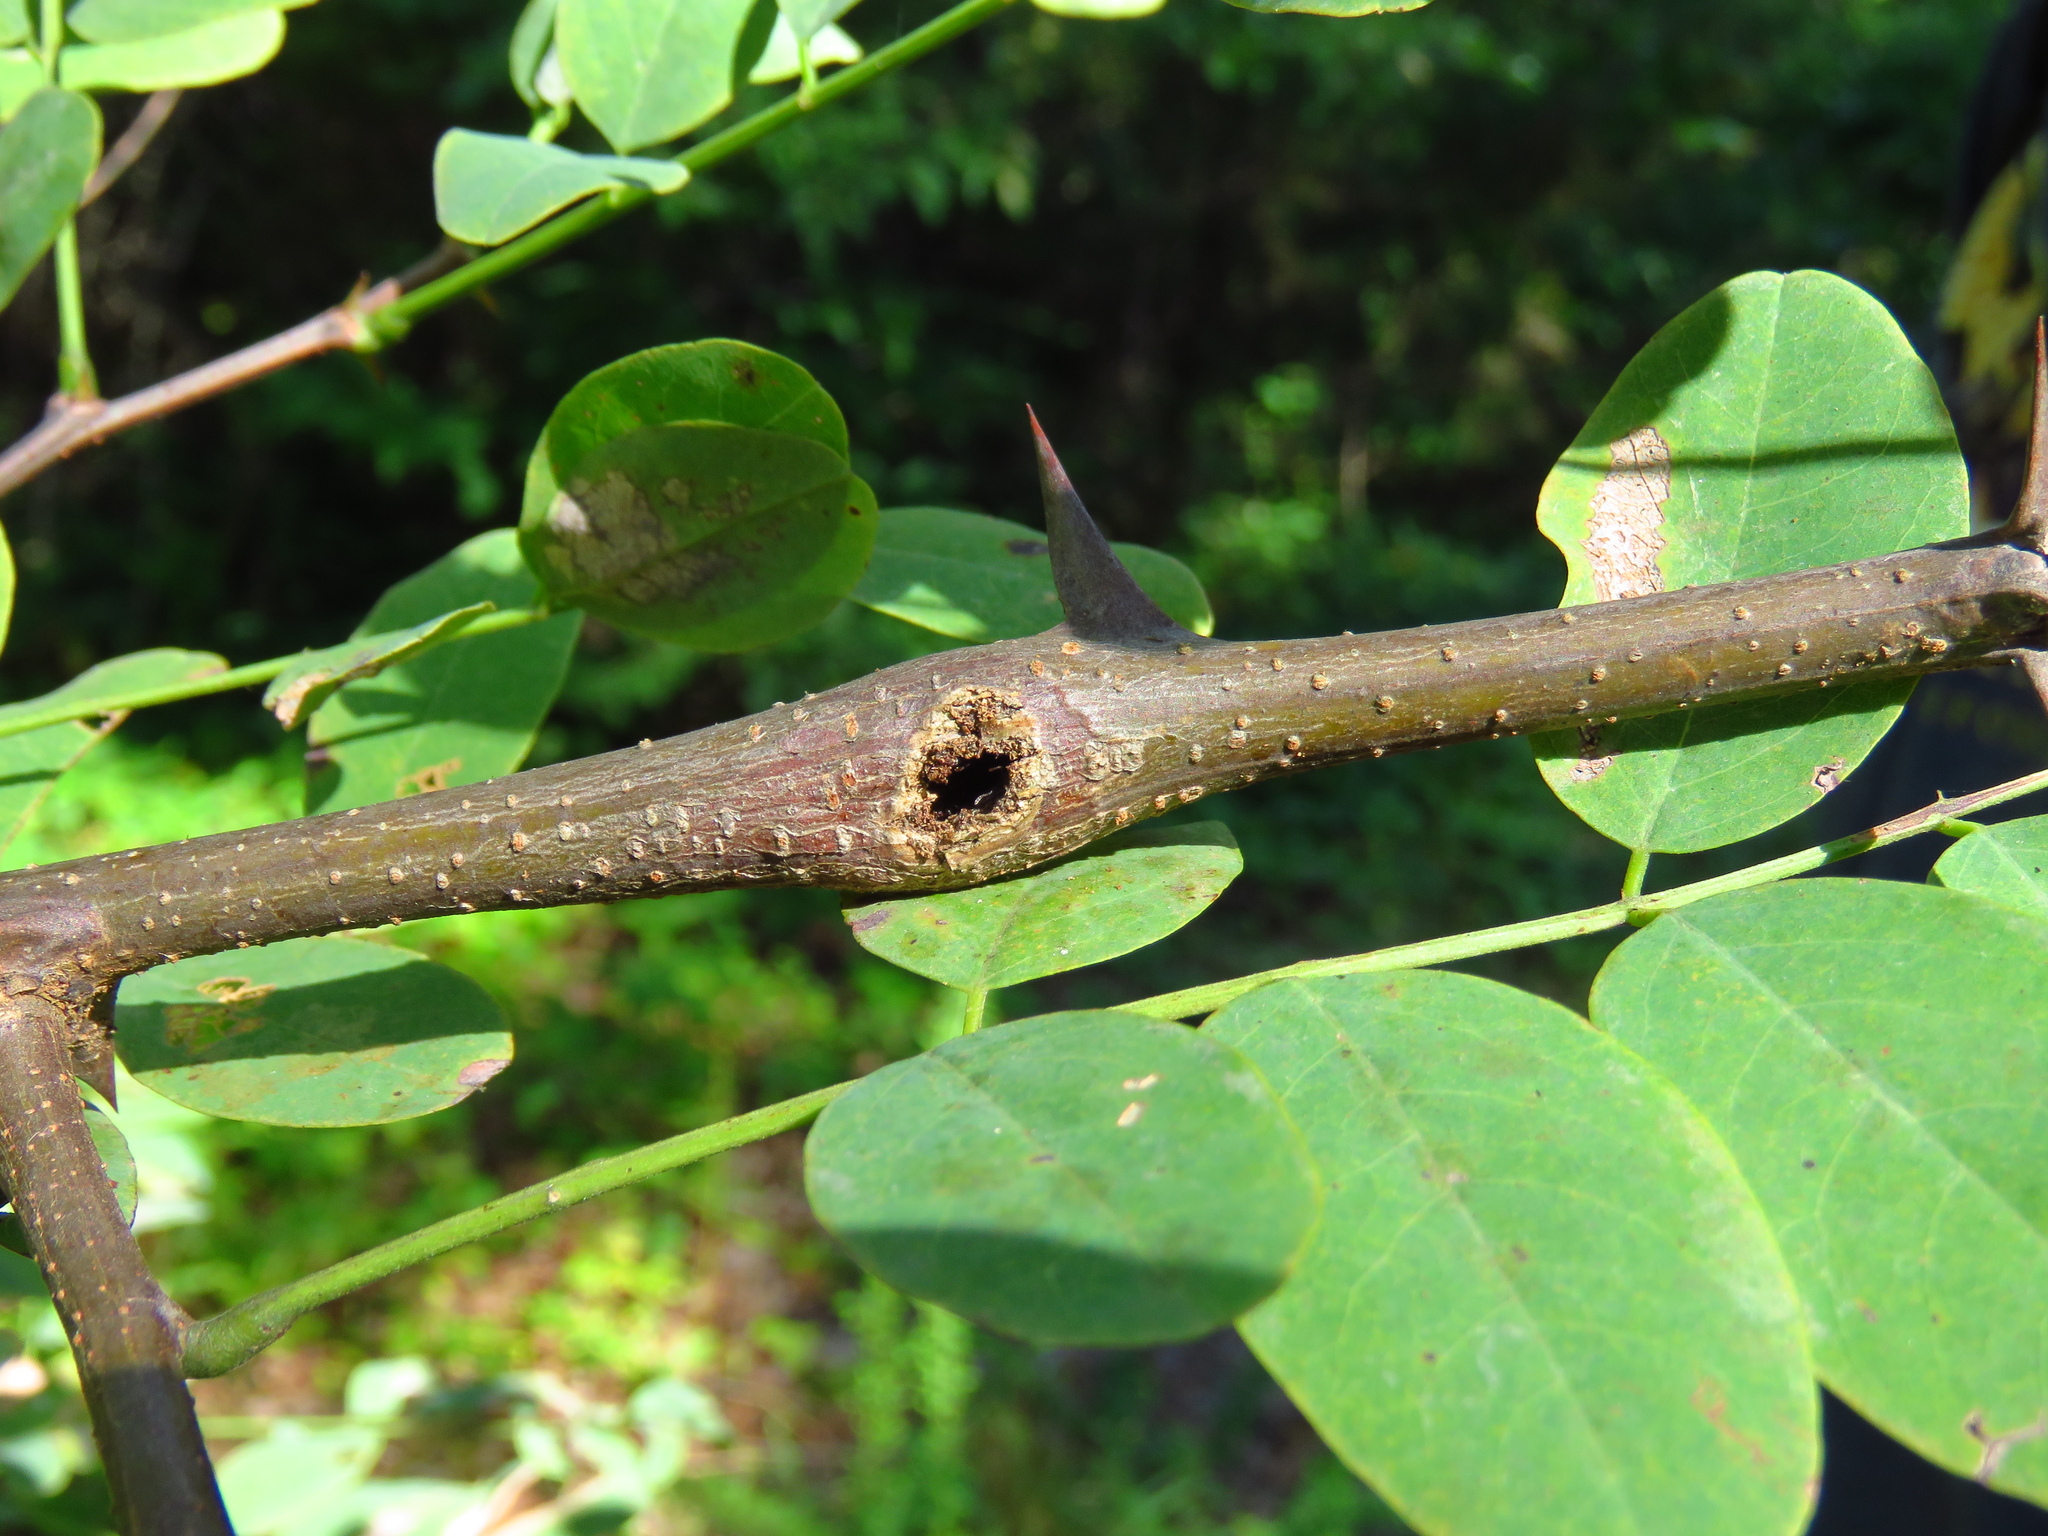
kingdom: Animalia
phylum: Arthropoda
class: Insecta
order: Lepidoptera
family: Tortricidae
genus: Ecdytolopha
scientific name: Ecdytolopha insiticiana
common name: Locust twig borer moth
